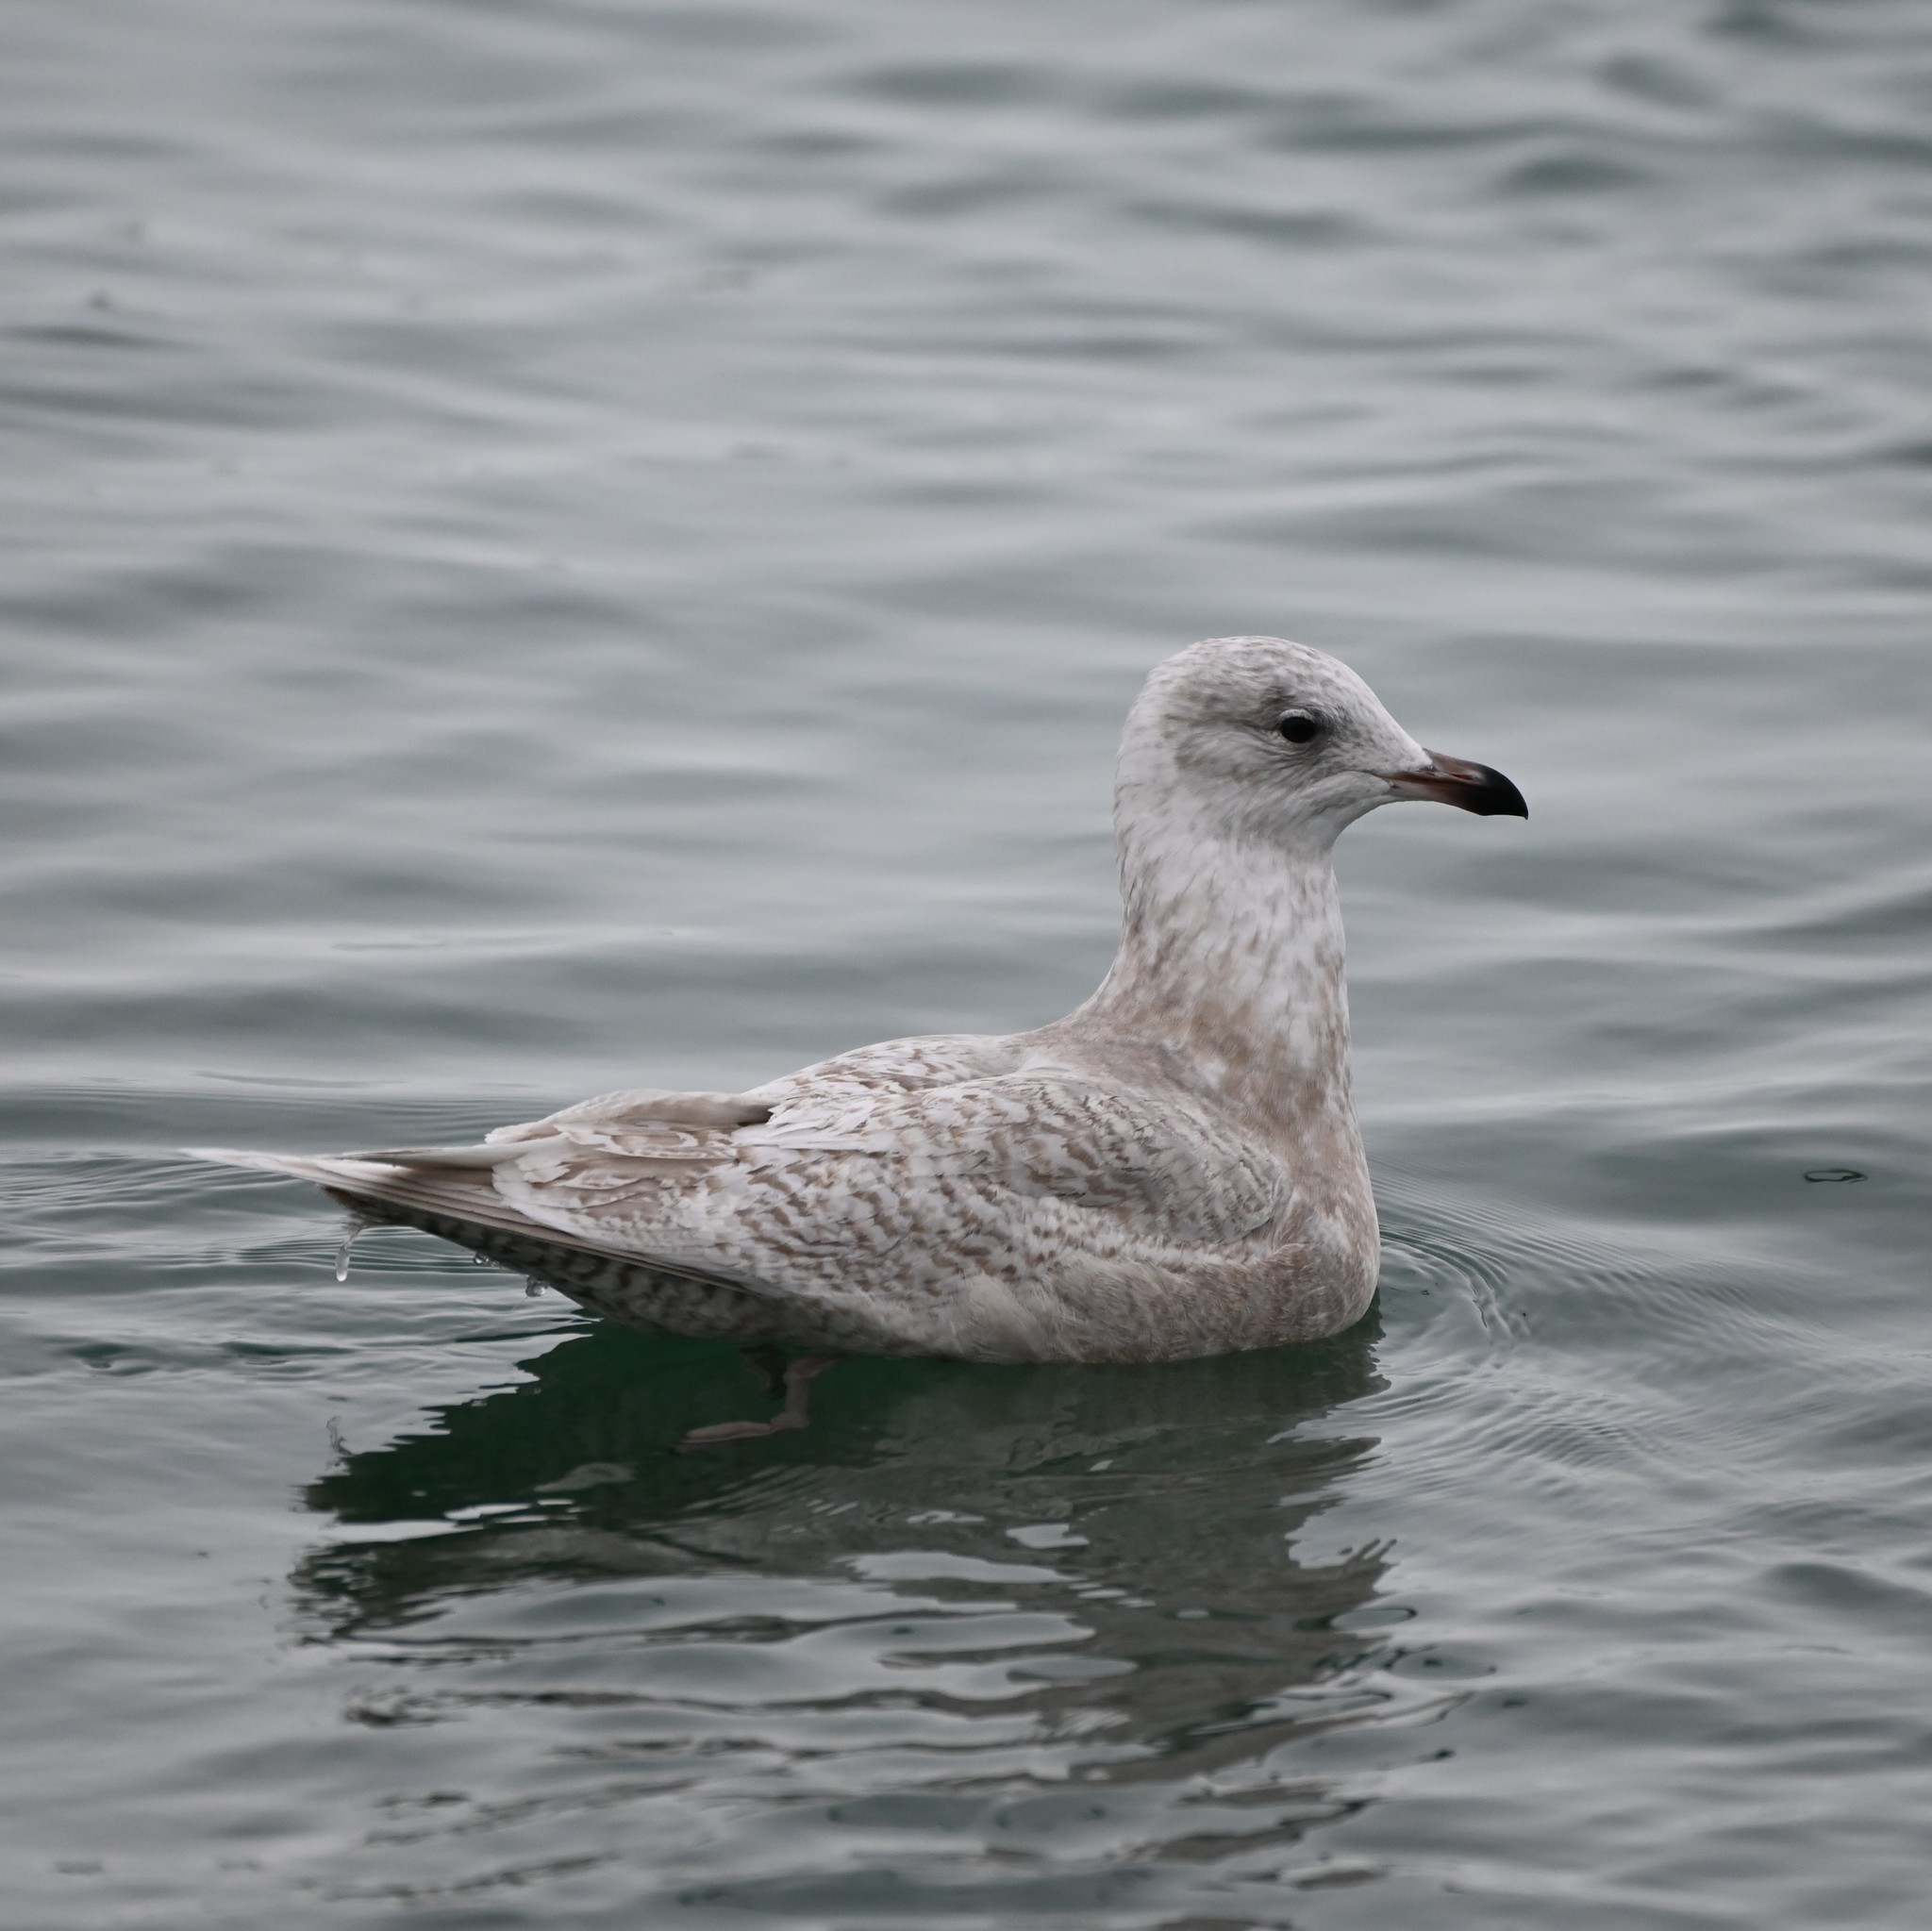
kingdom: Animalia
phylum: Chordata
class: Aves
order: Charadriiformes
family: Laridae
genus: Larus
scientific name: Larus glaucoides
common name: Iceland gull
